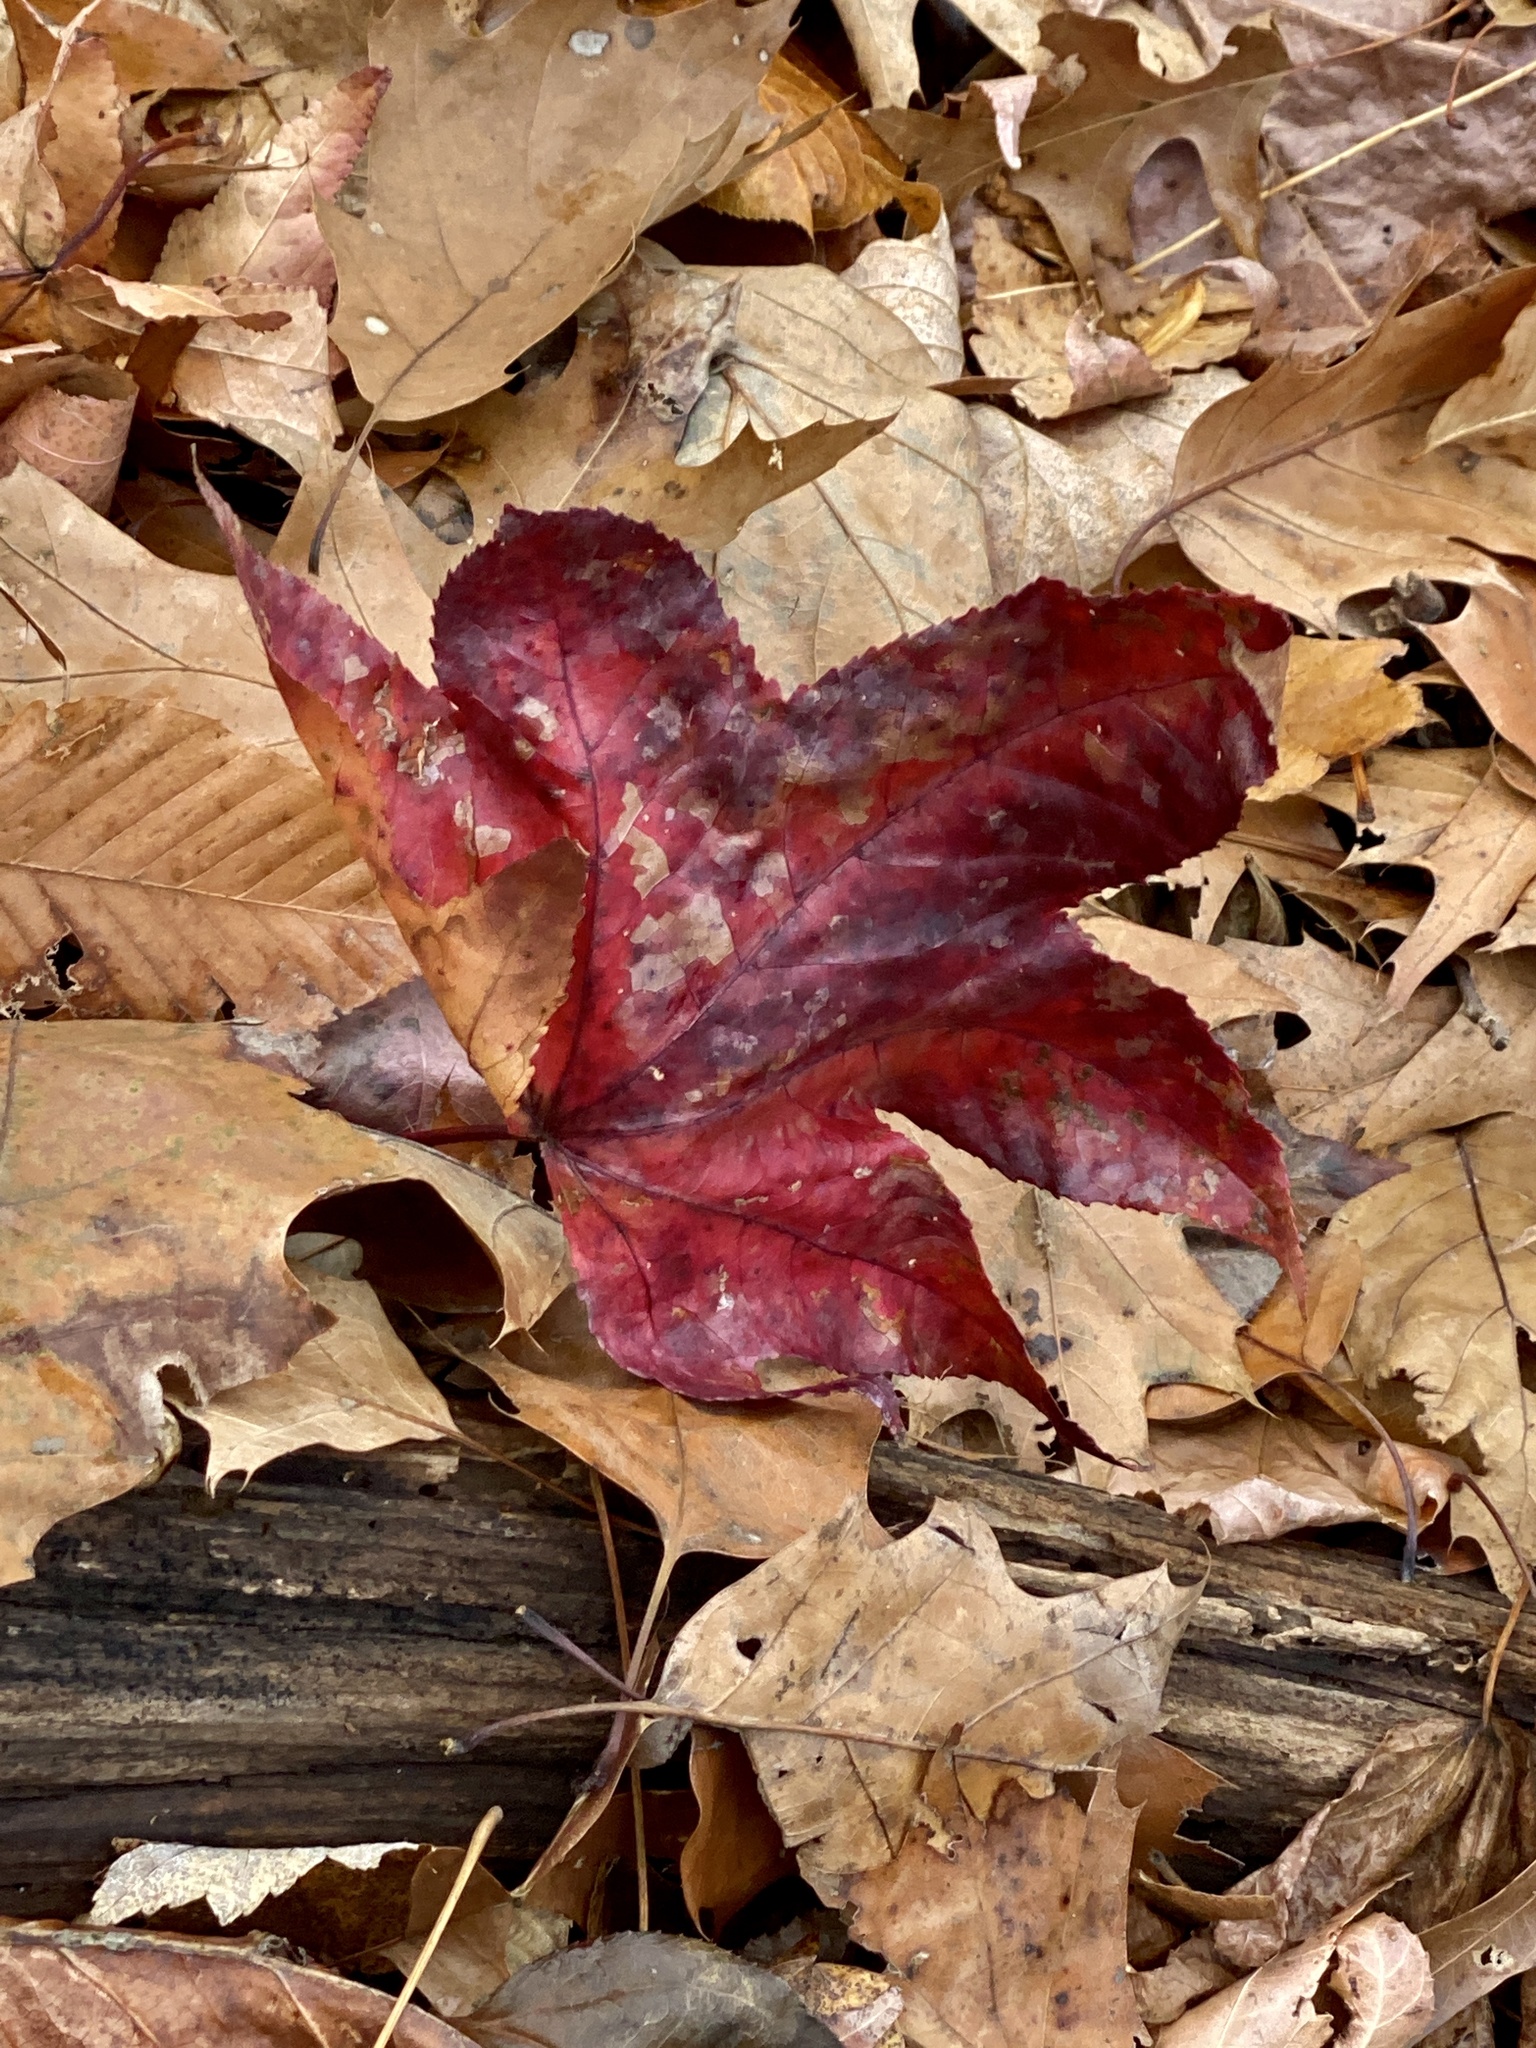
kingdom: Plantae
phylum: Tracheophyta
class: Magnoliopsida
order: Saxifragales
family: Altingiaceae
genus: Liquidambar
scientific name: Liquidambar styraciflua
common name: Sweet gum
